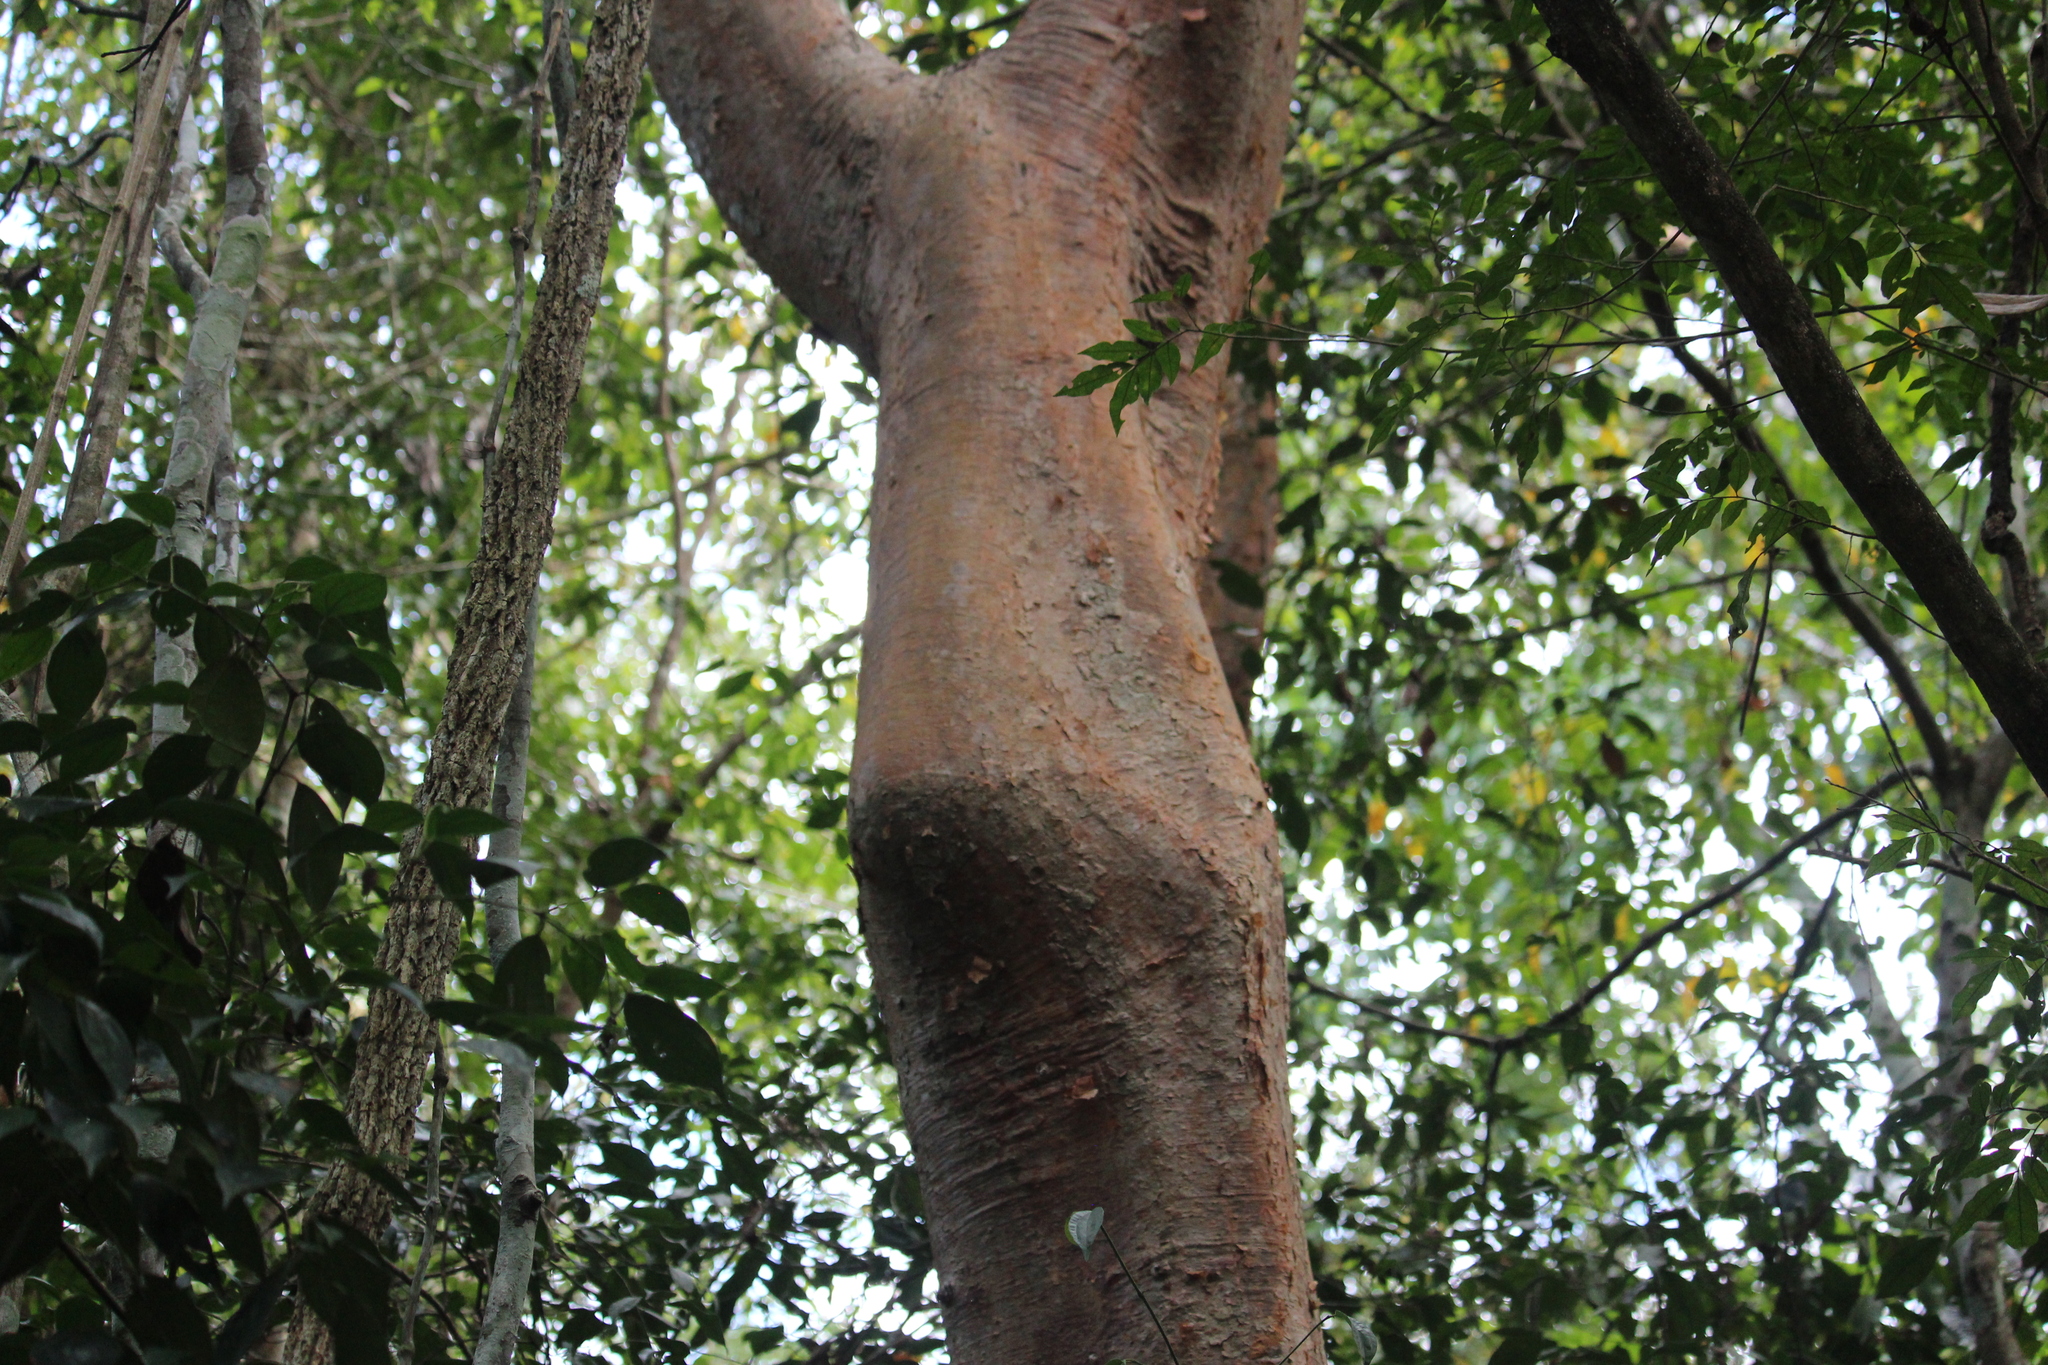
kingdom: Plantae
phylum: Tracheophyta
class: Magnoliopsida
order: Sapindales
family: Burseraceae
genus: Bursera
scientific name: Bursera simaruba
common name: Turpentine tree
